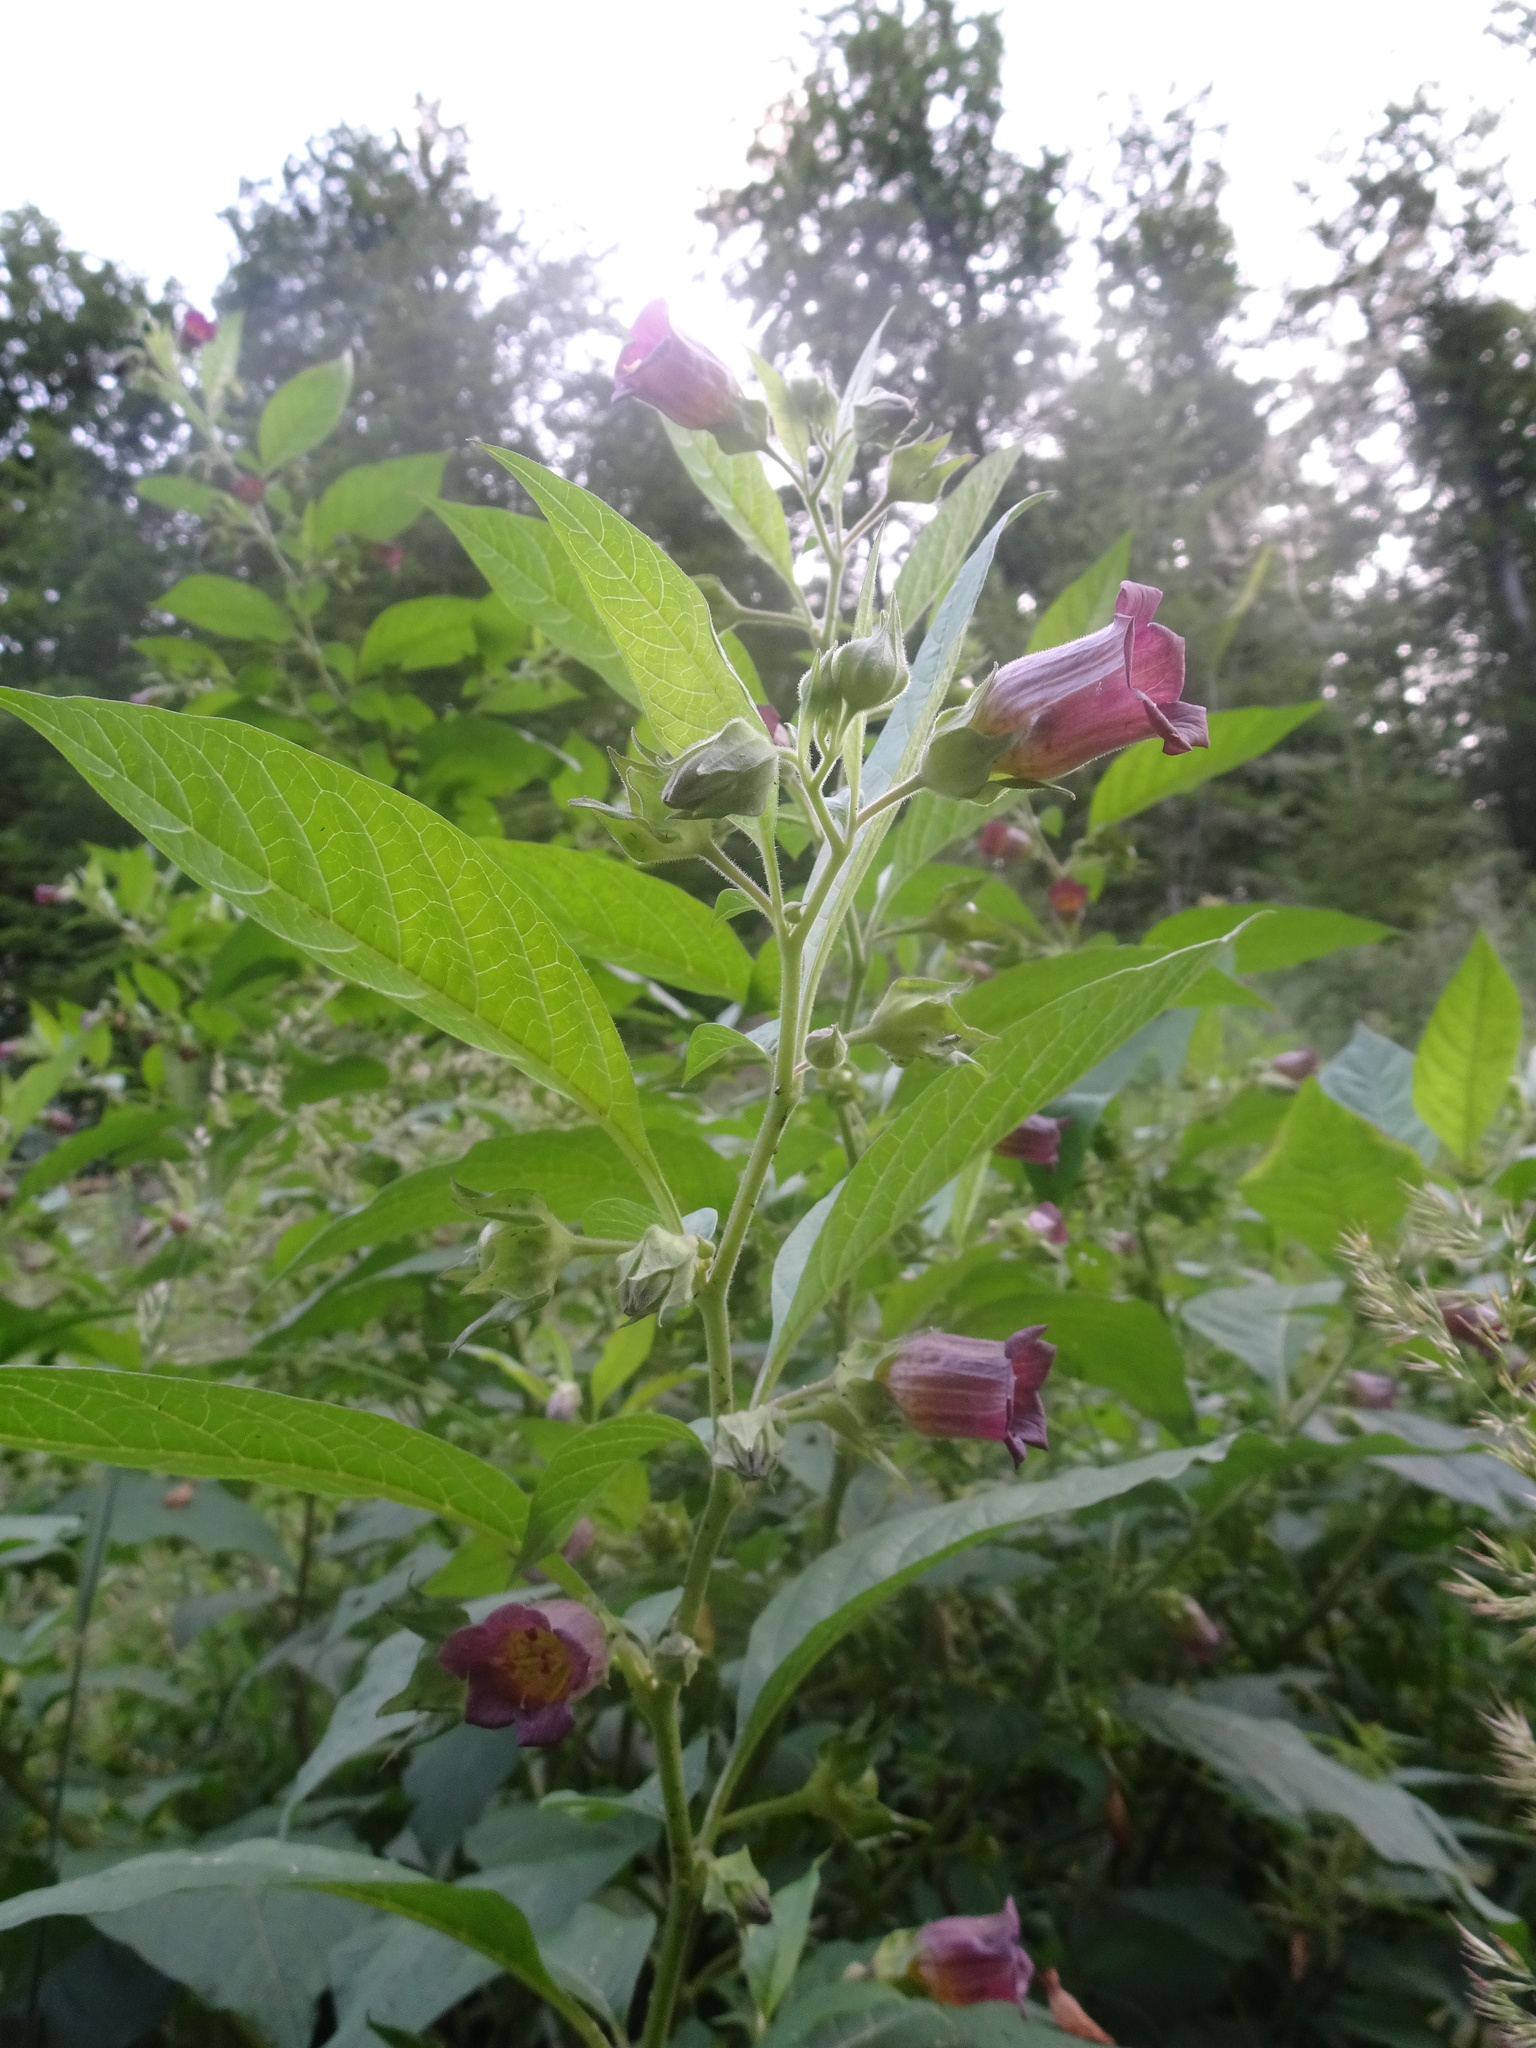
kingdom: Plantae
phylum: Tracheophyta
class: Magnoliopsida
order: Solanales
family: Solanaceae
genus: Atropa
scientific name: Atropa belladonna
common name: Deadly nightshade
